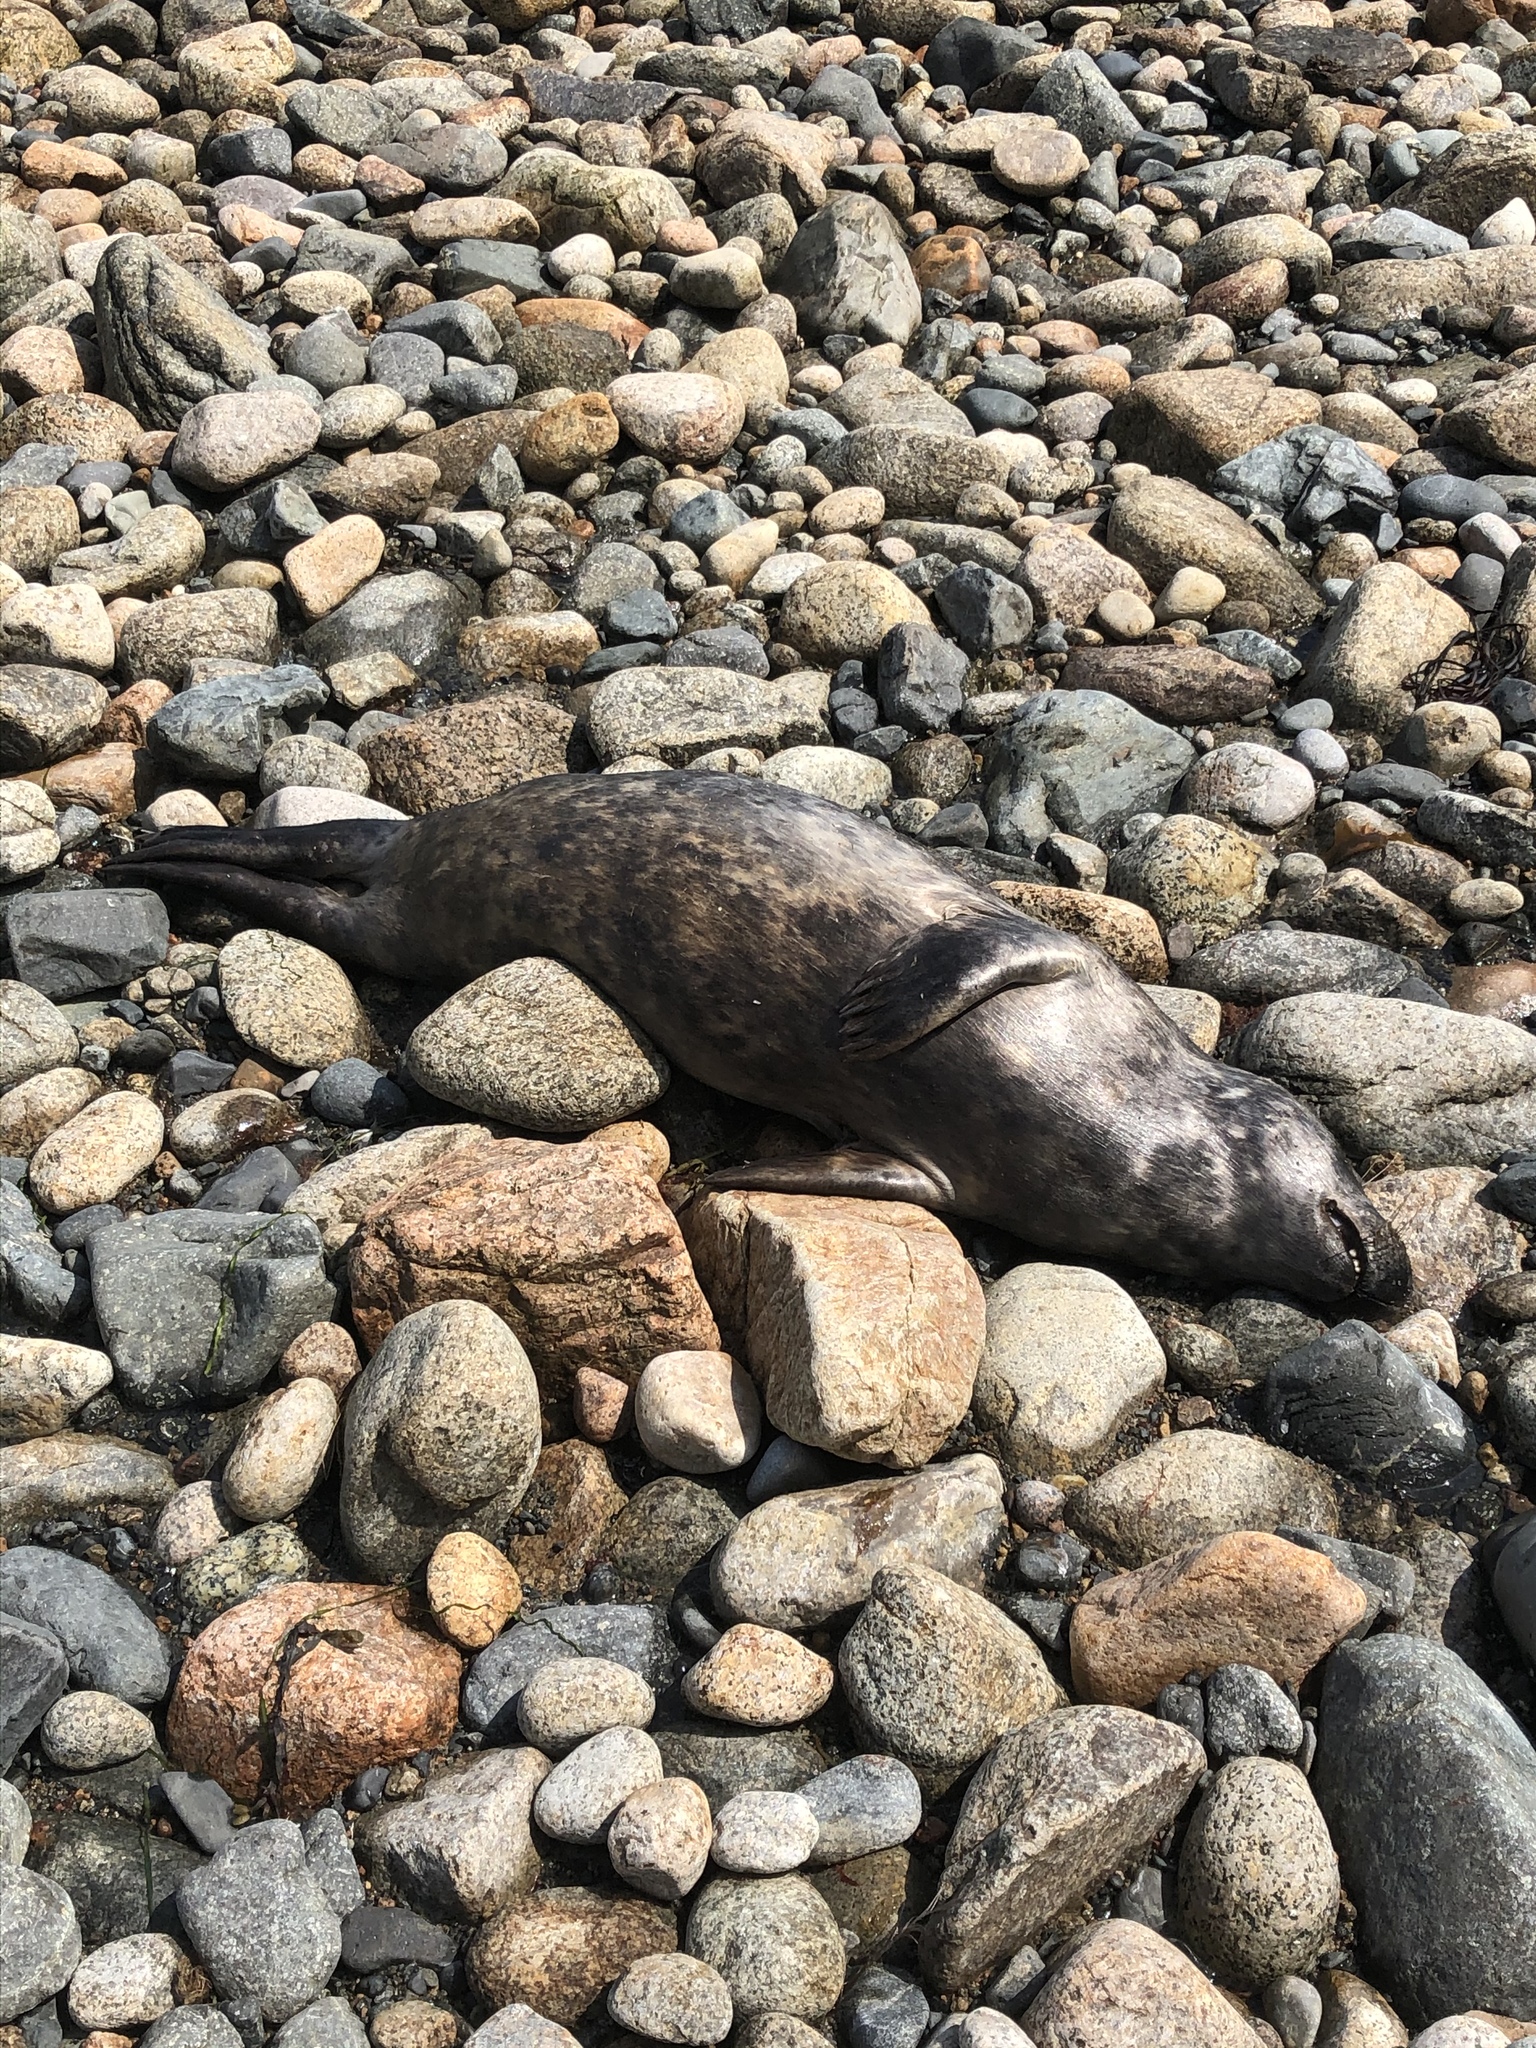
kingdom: Animalia
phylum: Chordata
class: Mammalia
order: Carnivora
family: Phocidae
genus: Halichoerus
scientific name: Halichoerus grypus
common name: Grey seal
